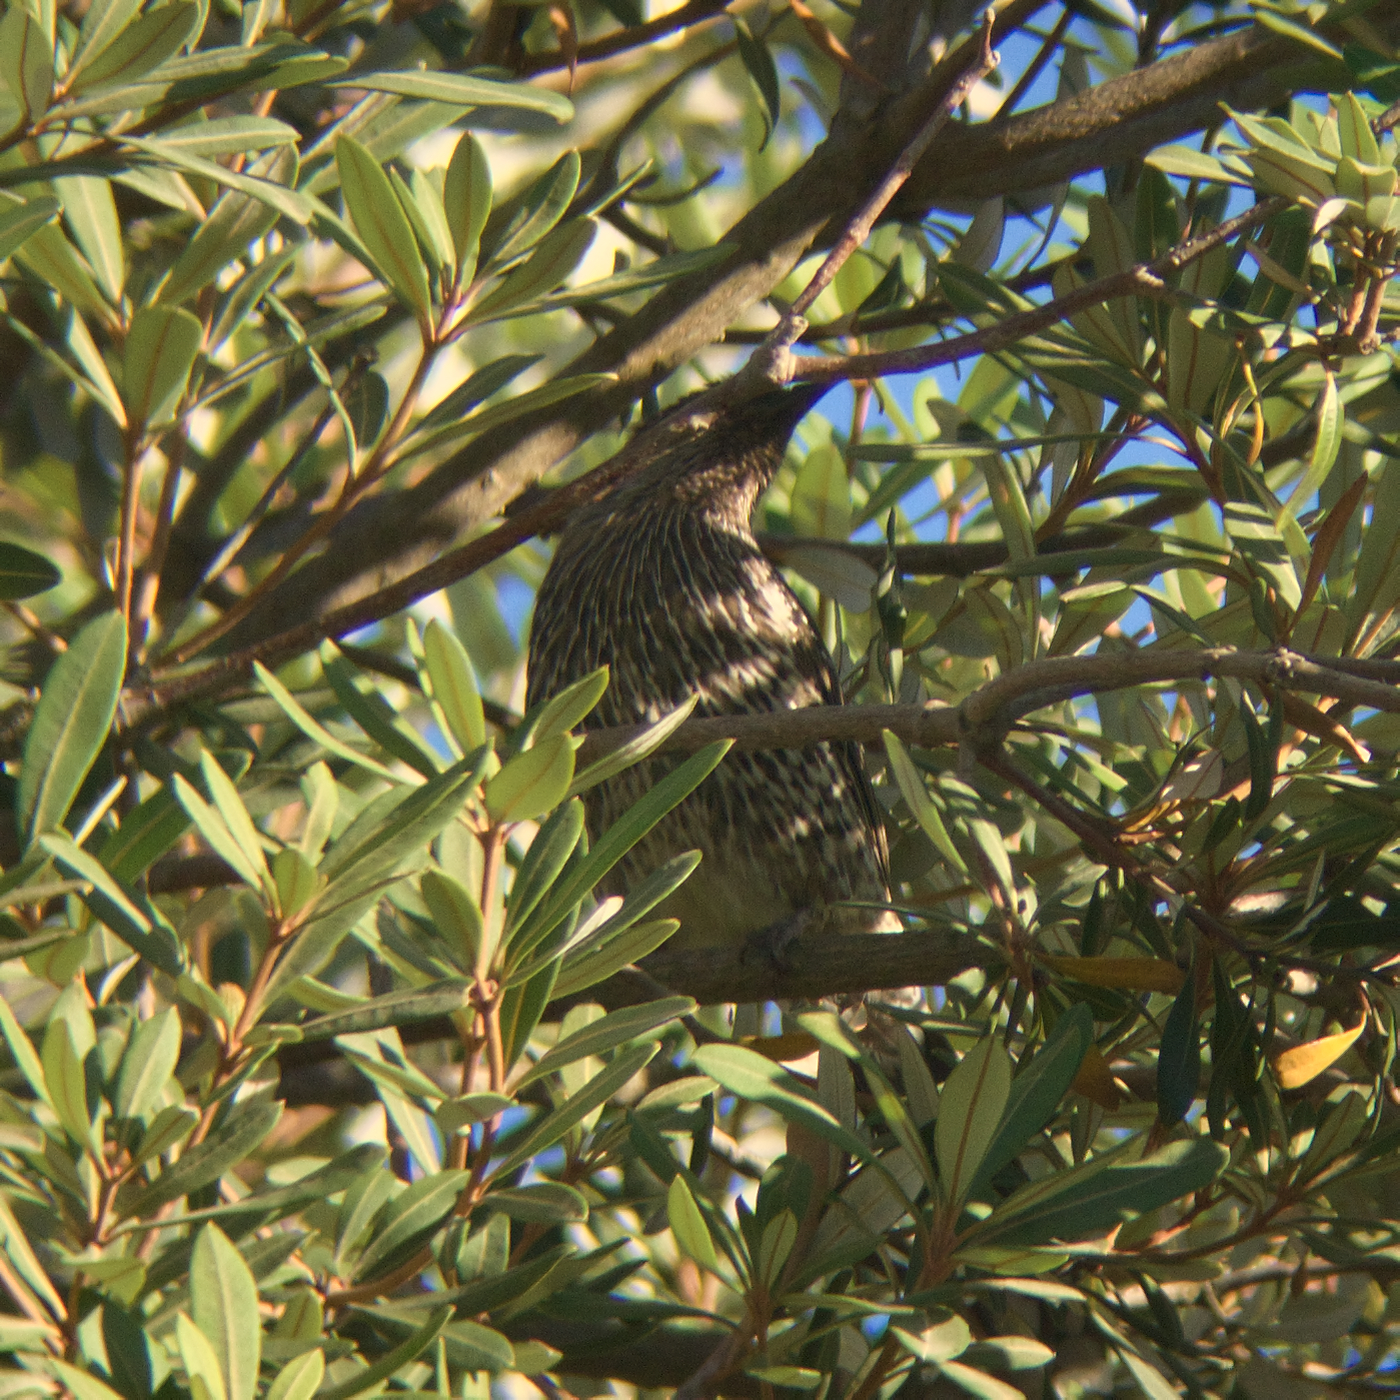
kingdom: Animalia
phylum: Chordata
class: Aves
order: Passeriformes
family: Meliphagidae
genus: Anthochaera
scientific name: Anthochaera chrysoptera
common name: Little wattlebird
